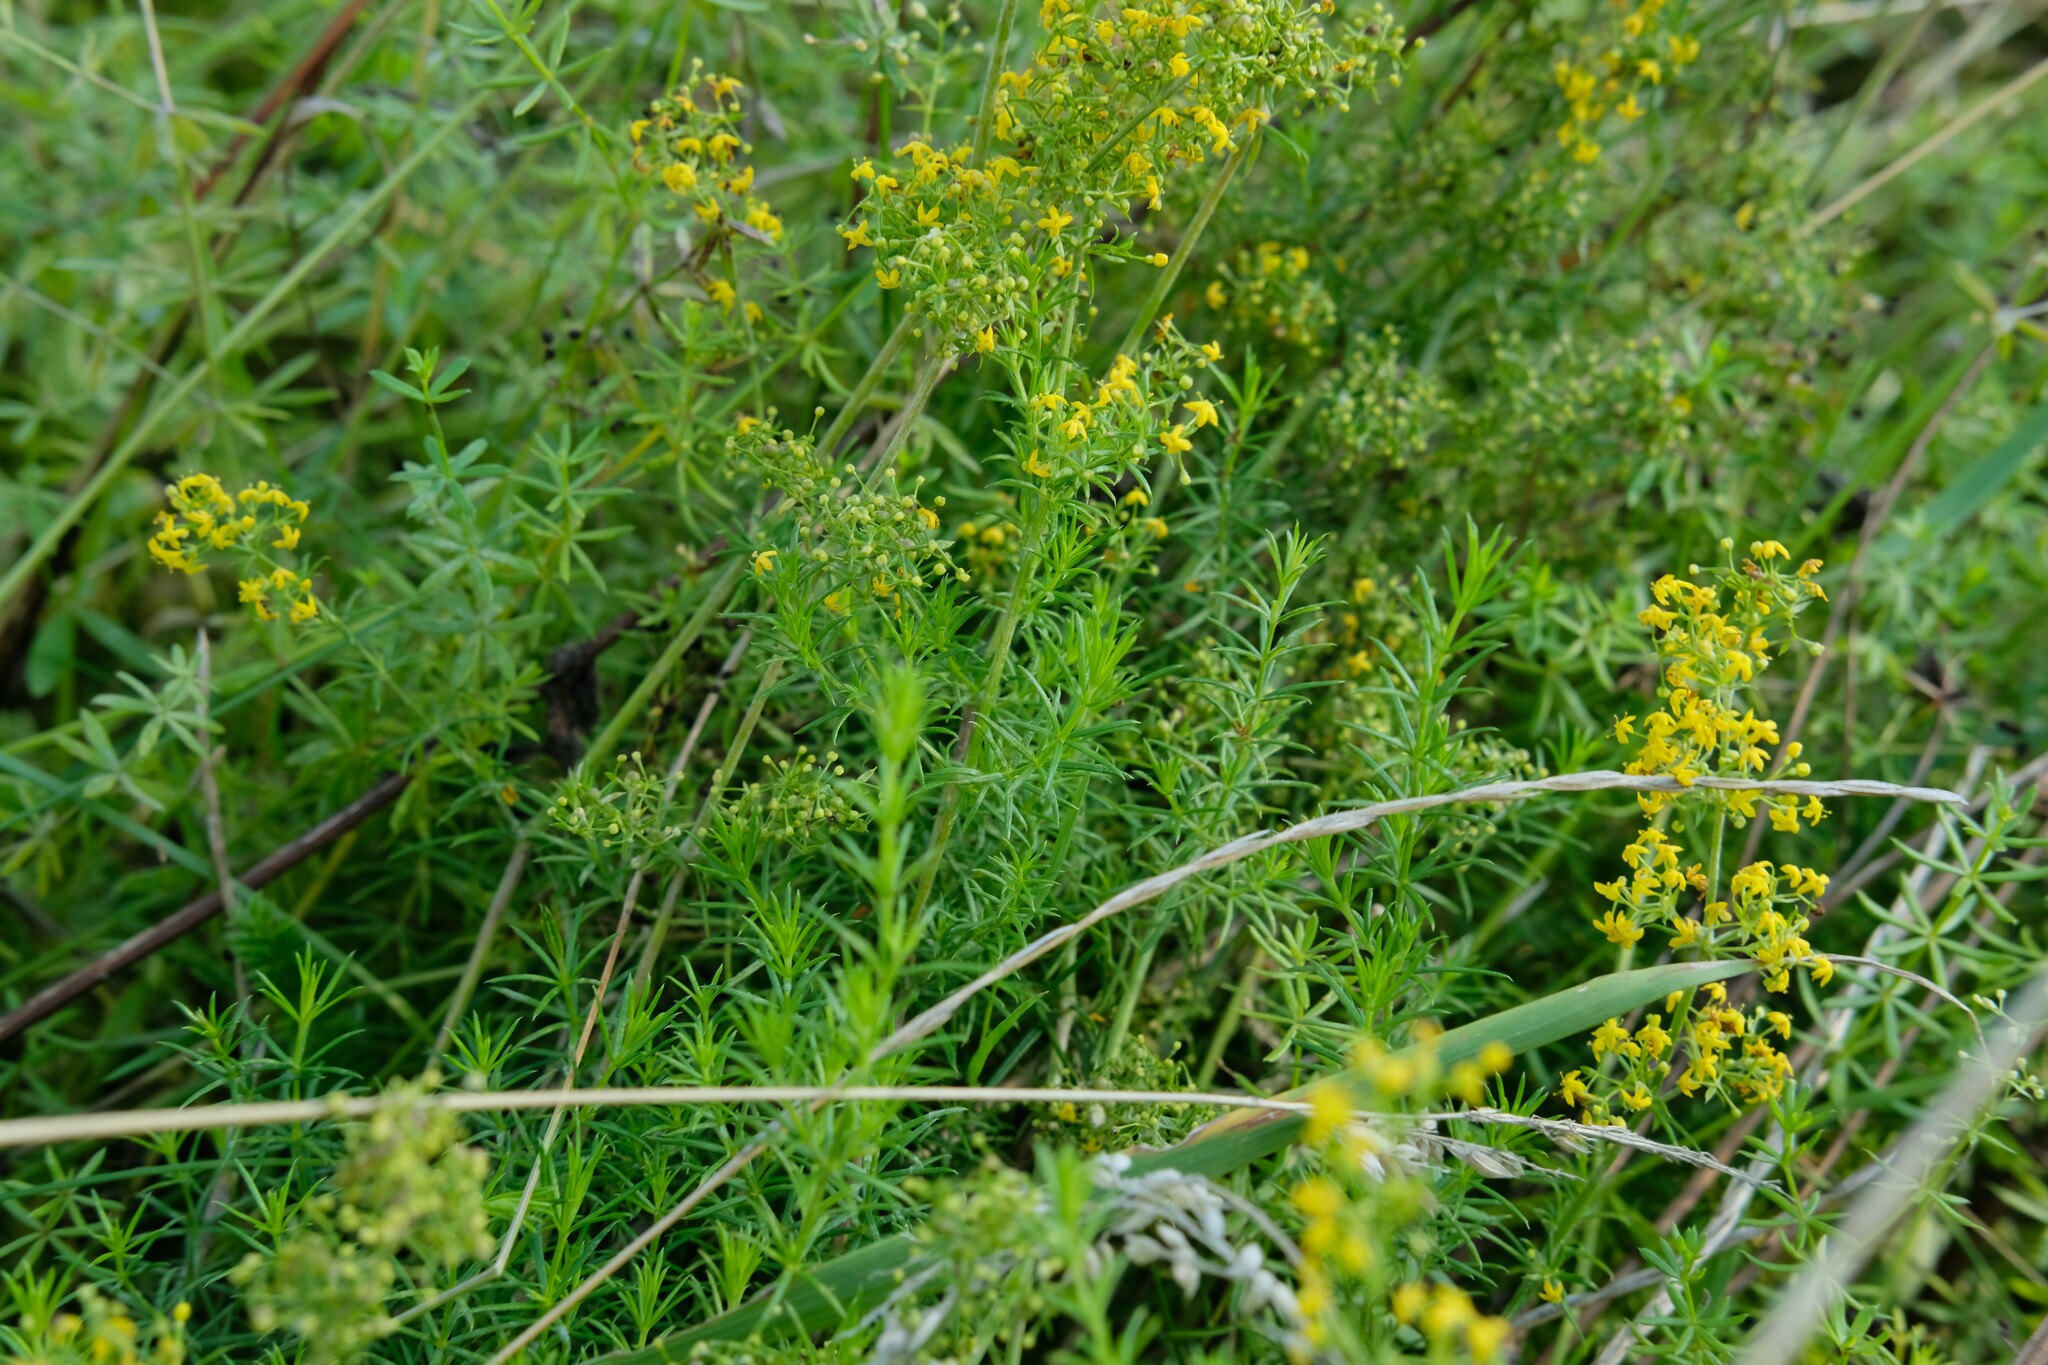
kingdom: Plantae
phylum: Tracheophyta
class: Magnoliopsida
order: Gentianales
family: Rubiaceae
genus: Galium
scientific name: Galium verum
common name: Lady's bedstraw
